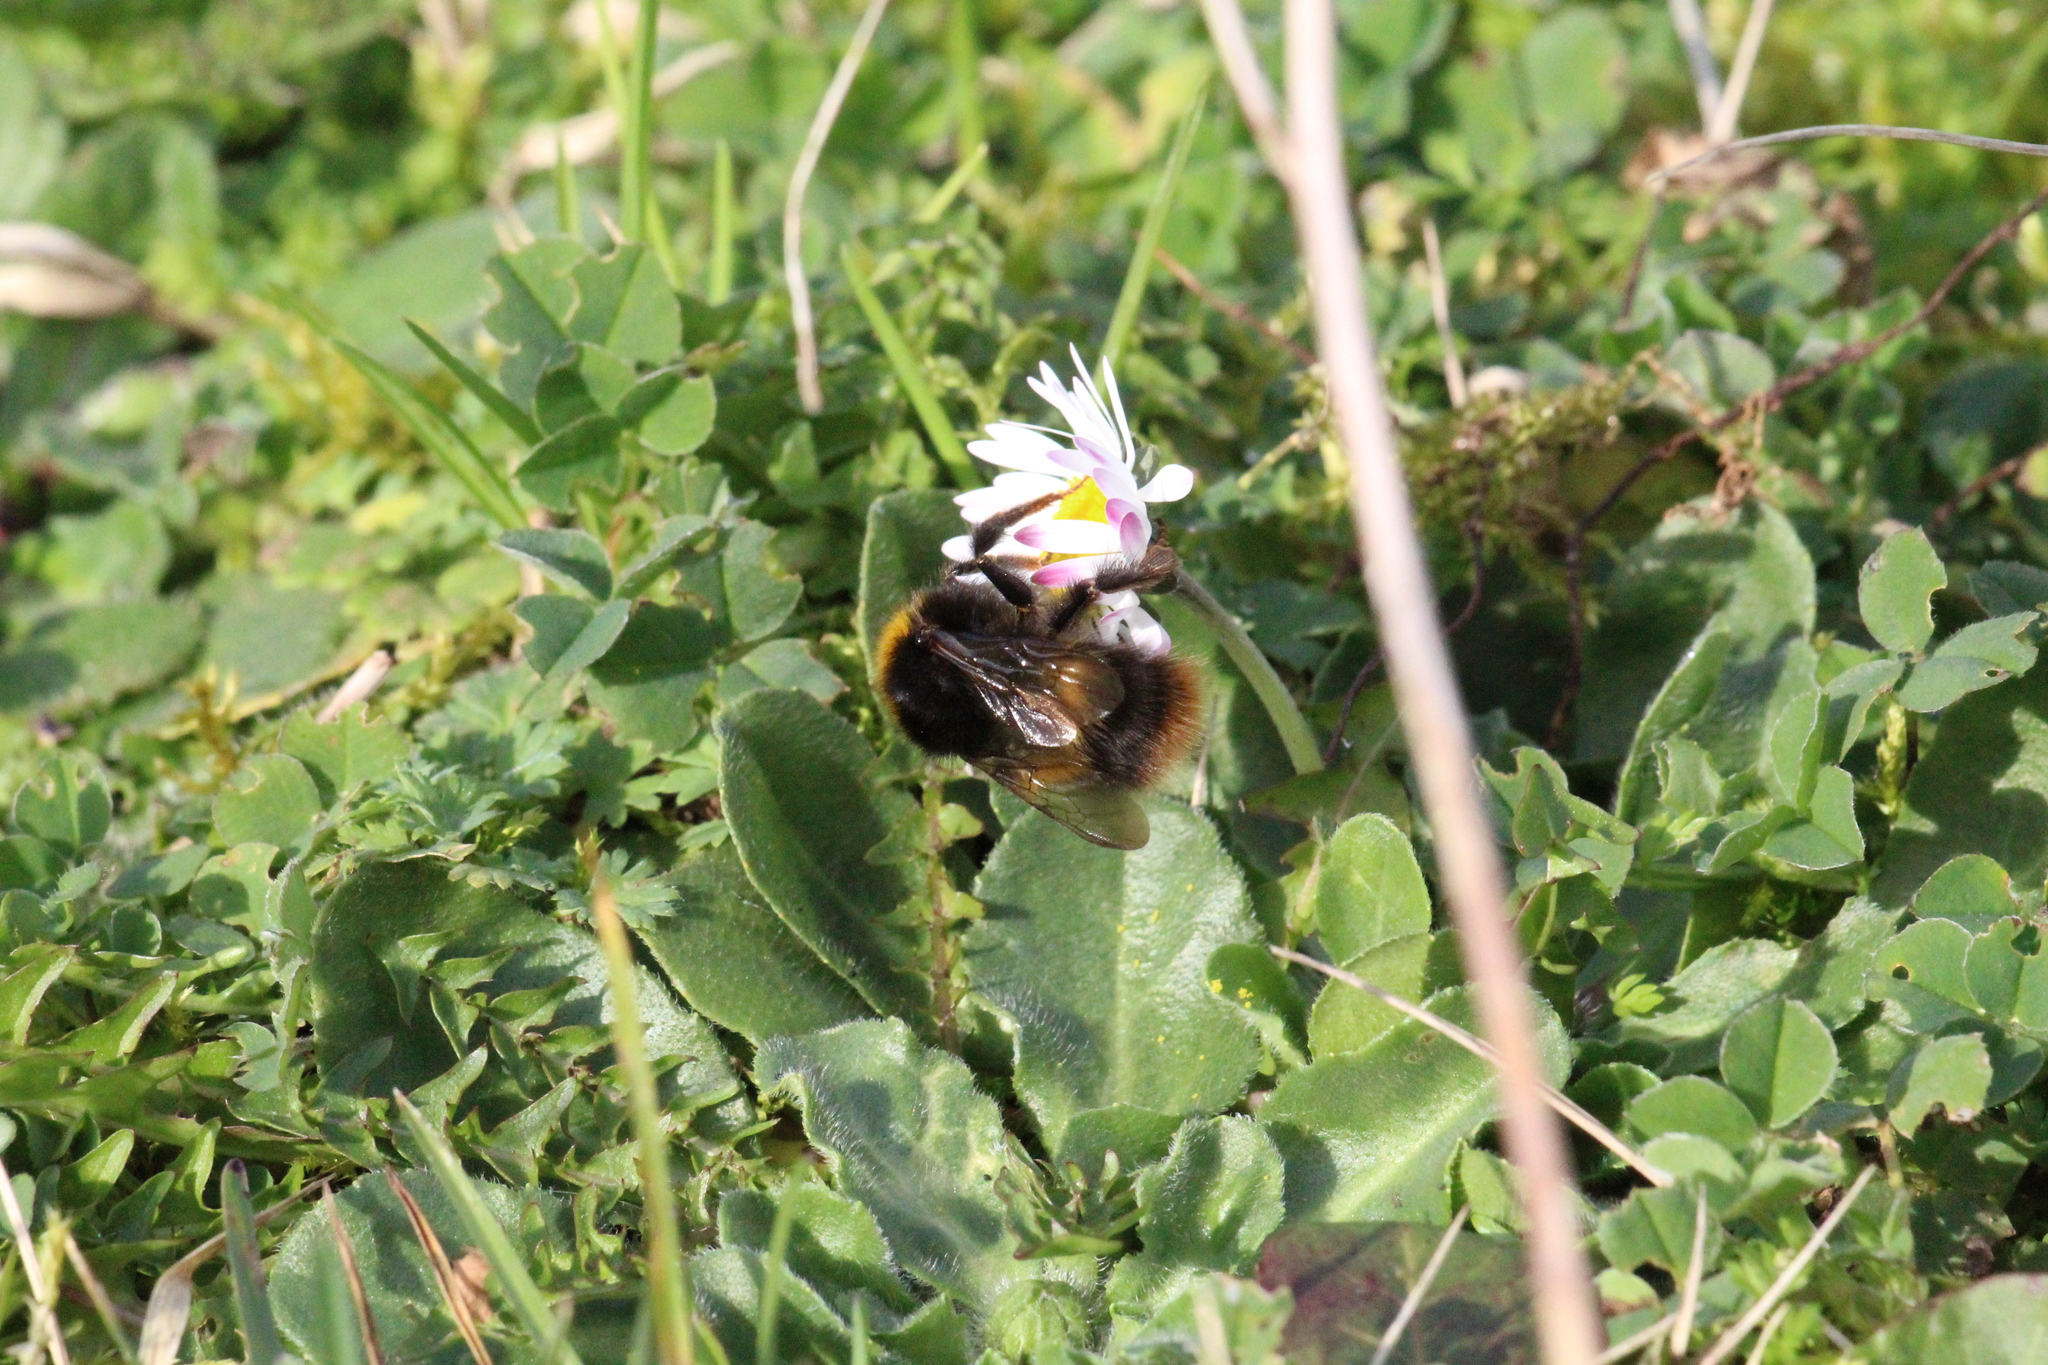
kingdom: Animalia
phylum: Arthropoda
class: Insecta
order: Hymenoptera
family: Apidae
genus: Bombus
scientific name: Bombus pratorum
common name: Early humble-bee
